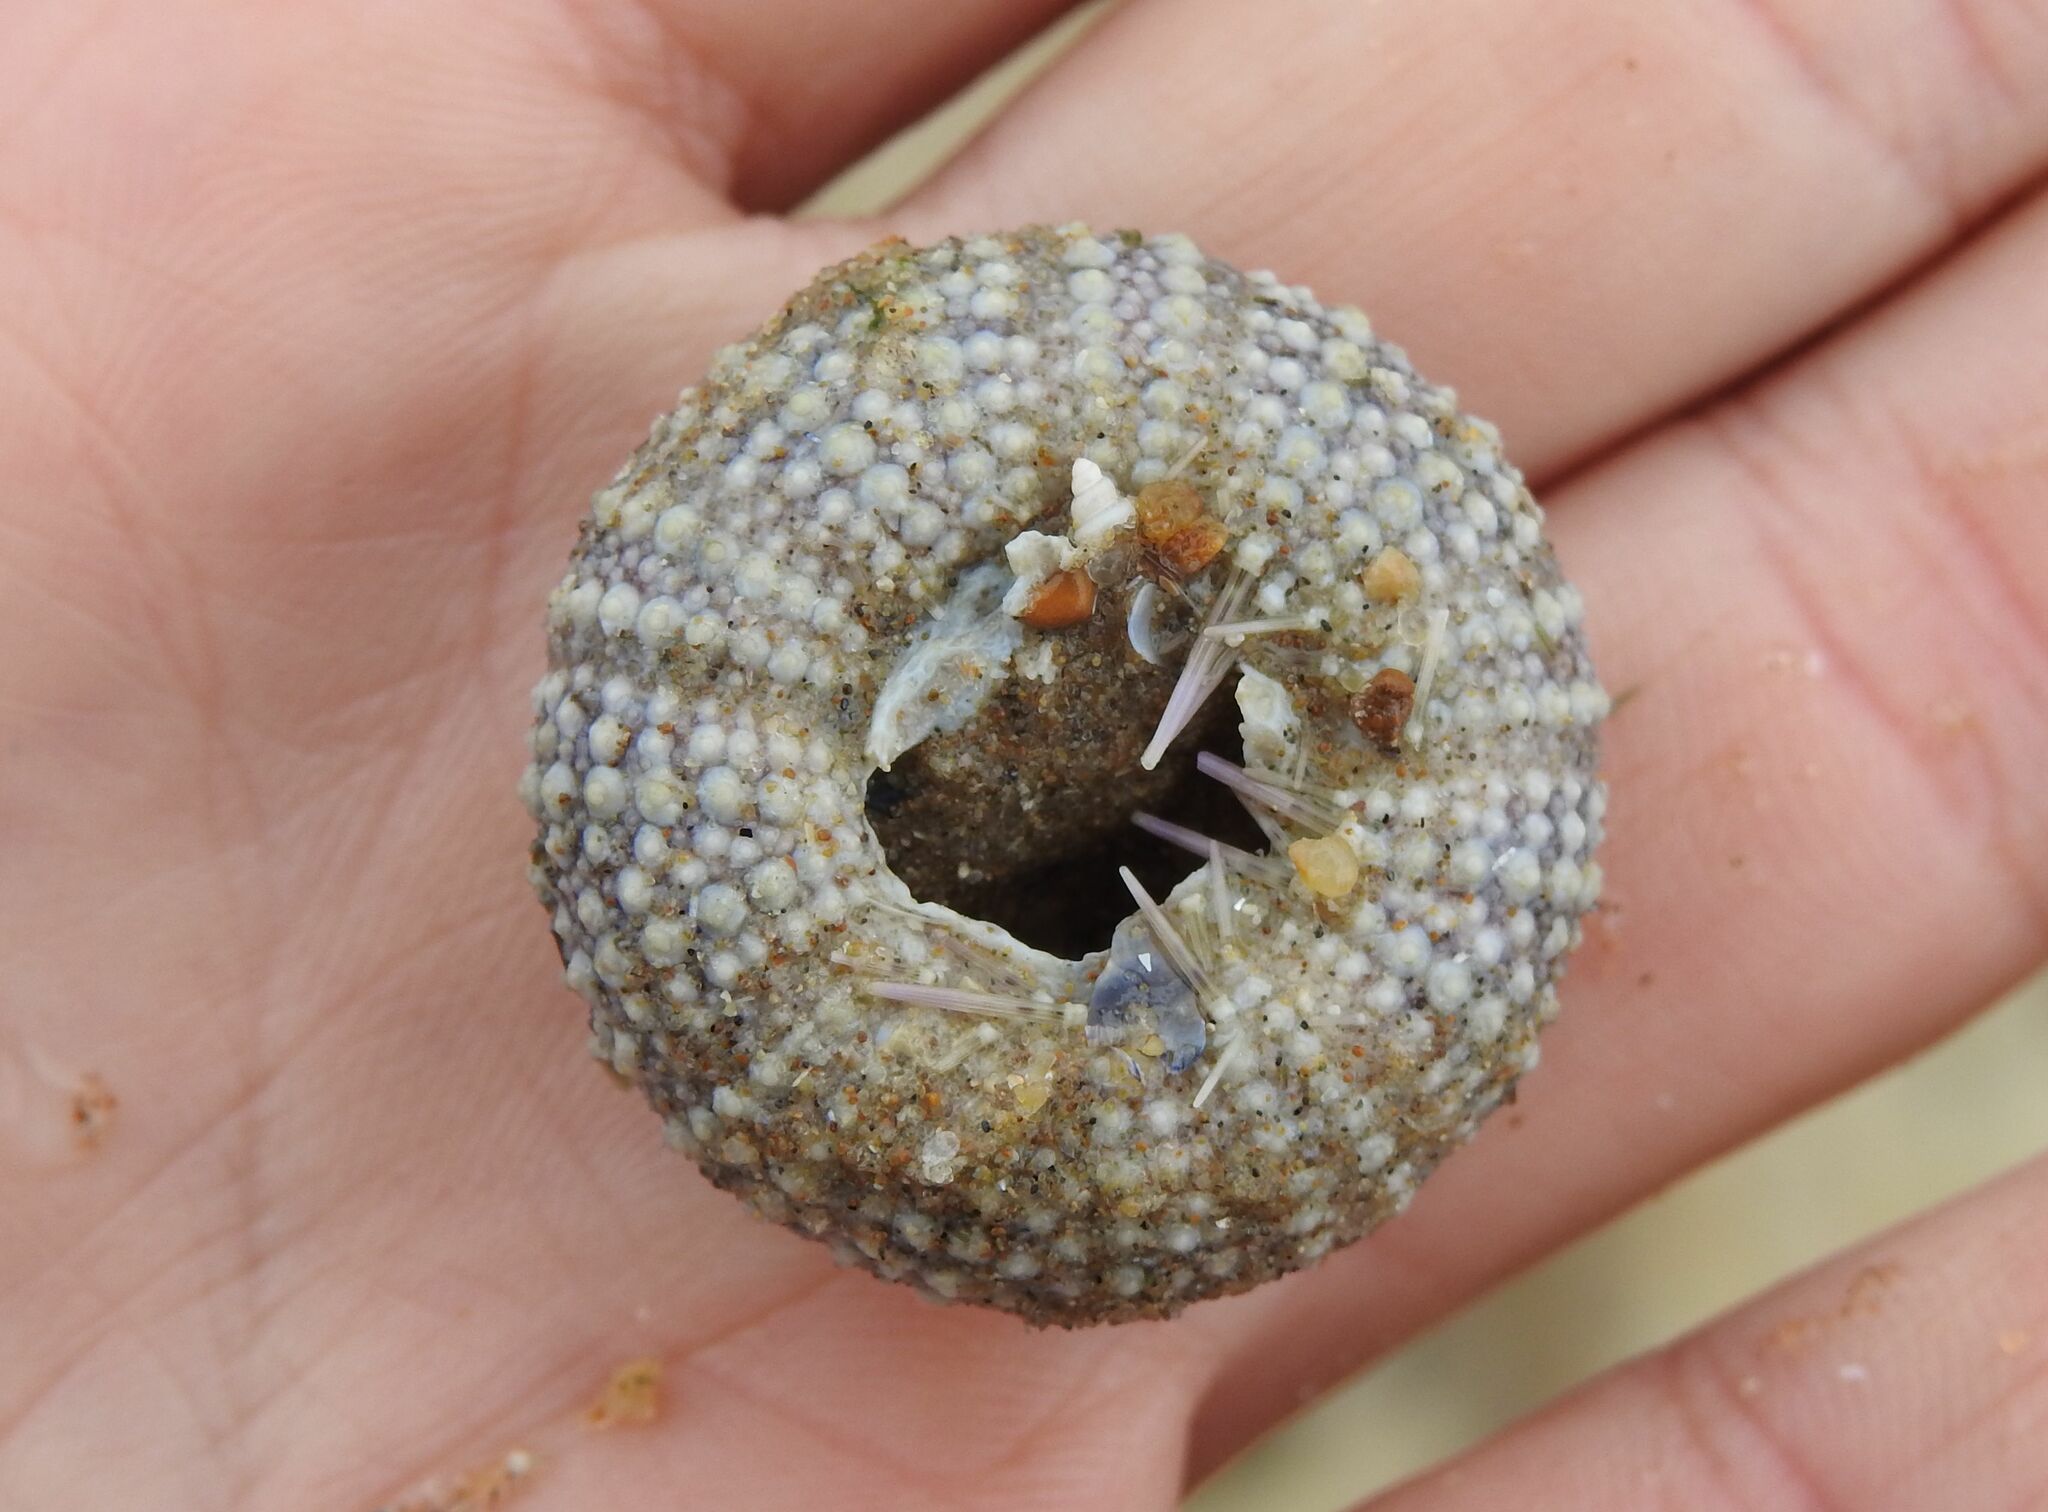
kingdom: Animalia
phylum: Echinodermata
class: Echinoidea
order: Camarodonta
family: Parechinidae
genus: Psammechinus
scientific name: Psammechinus miliaris
